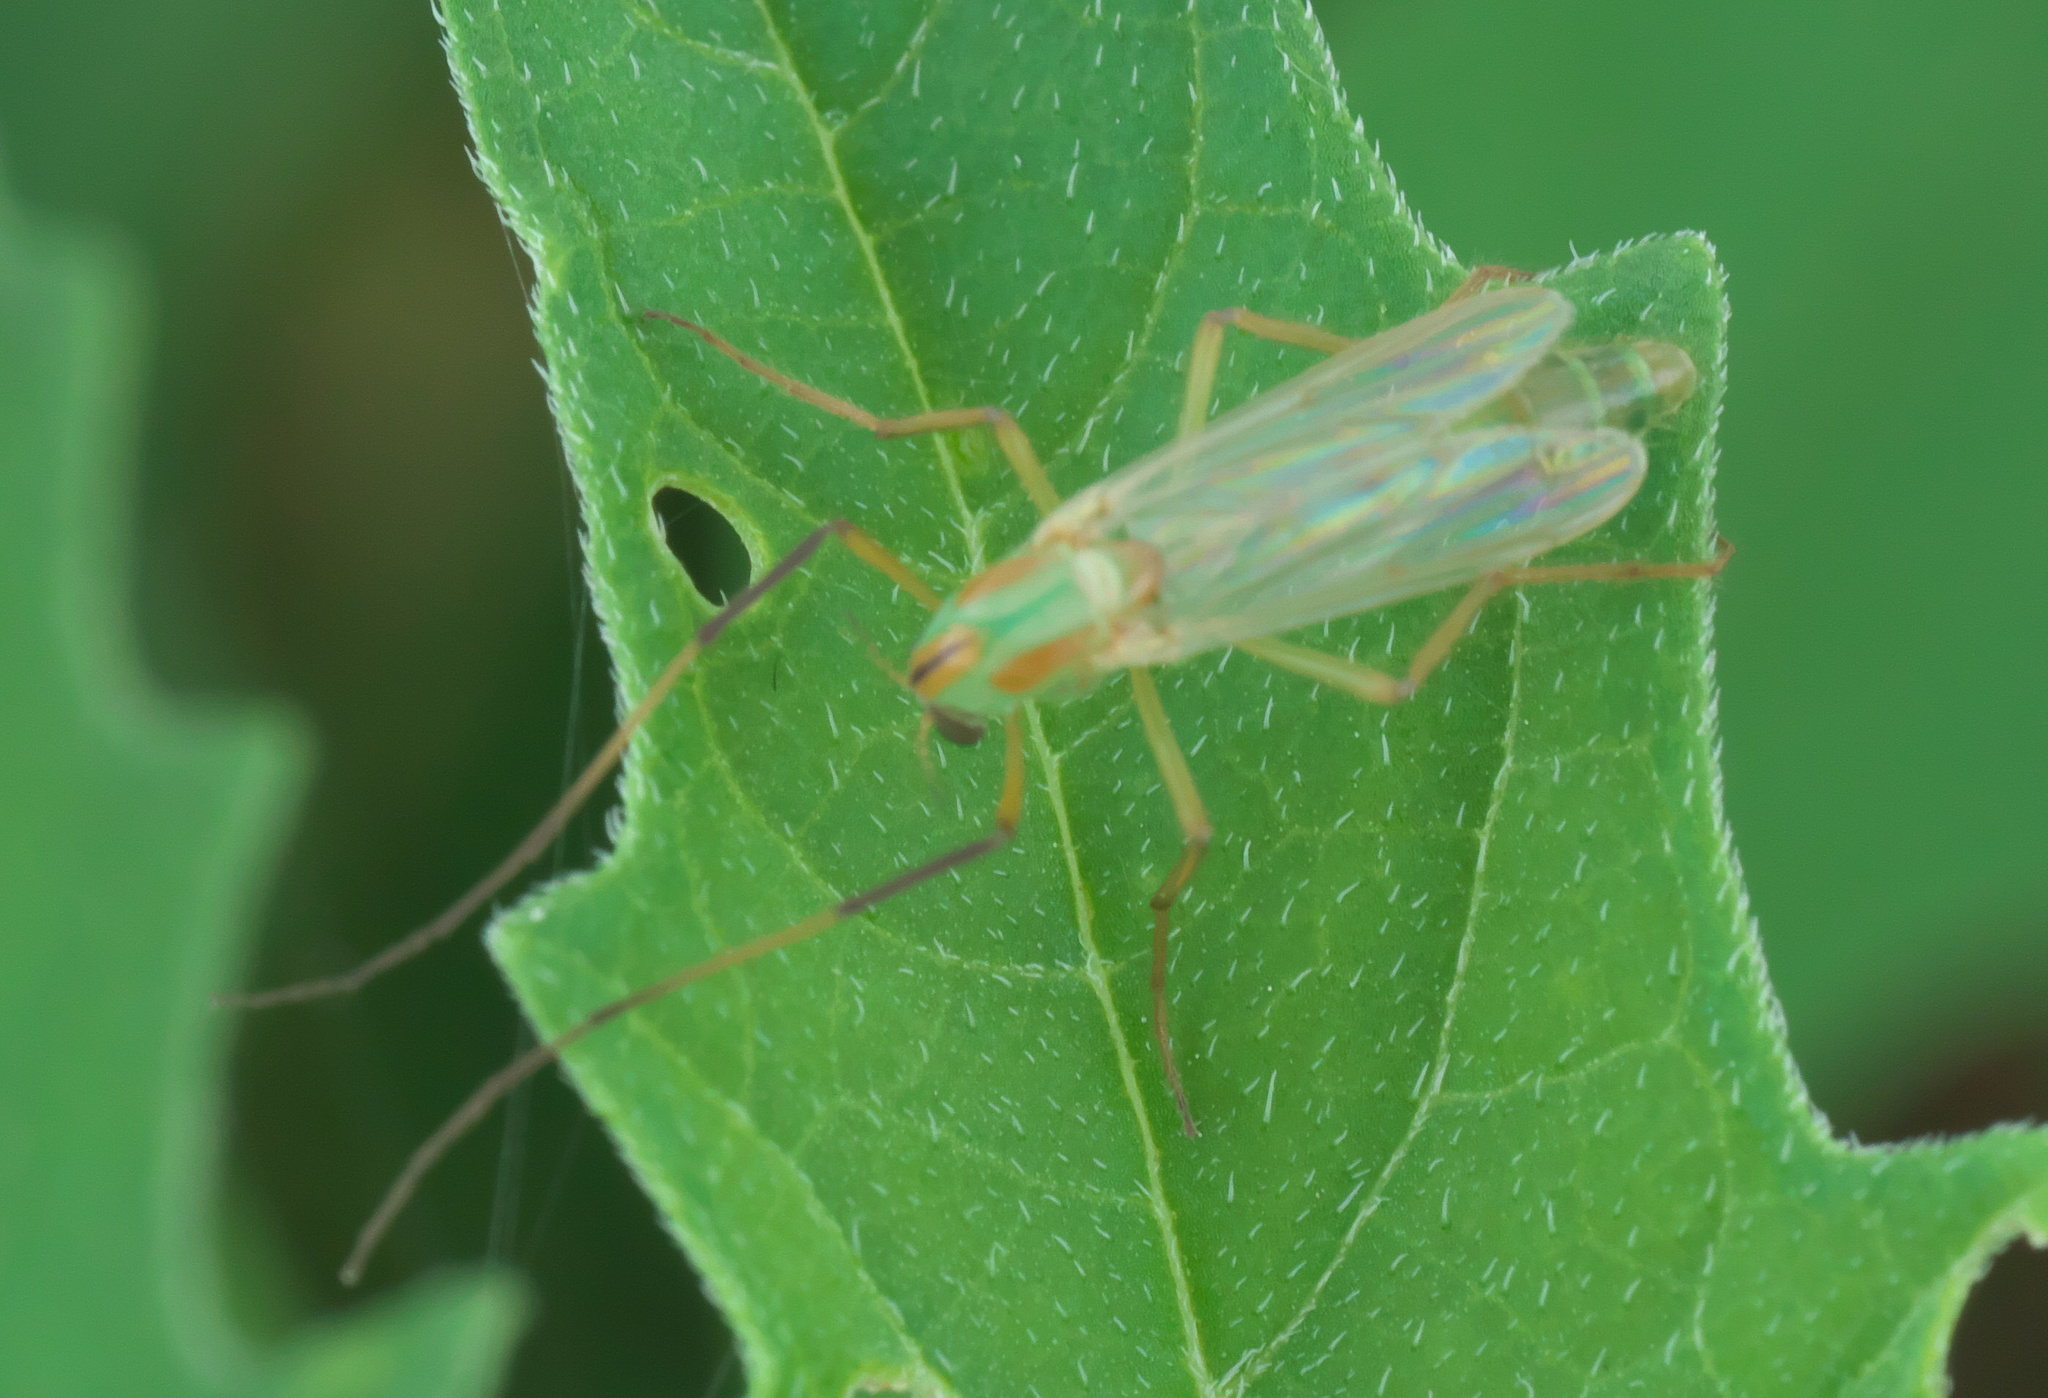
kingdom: Animalia
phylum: Arthropoda
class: Insecta
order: Diptera
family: Chironomidae
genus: Axarus
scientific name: Axarus
